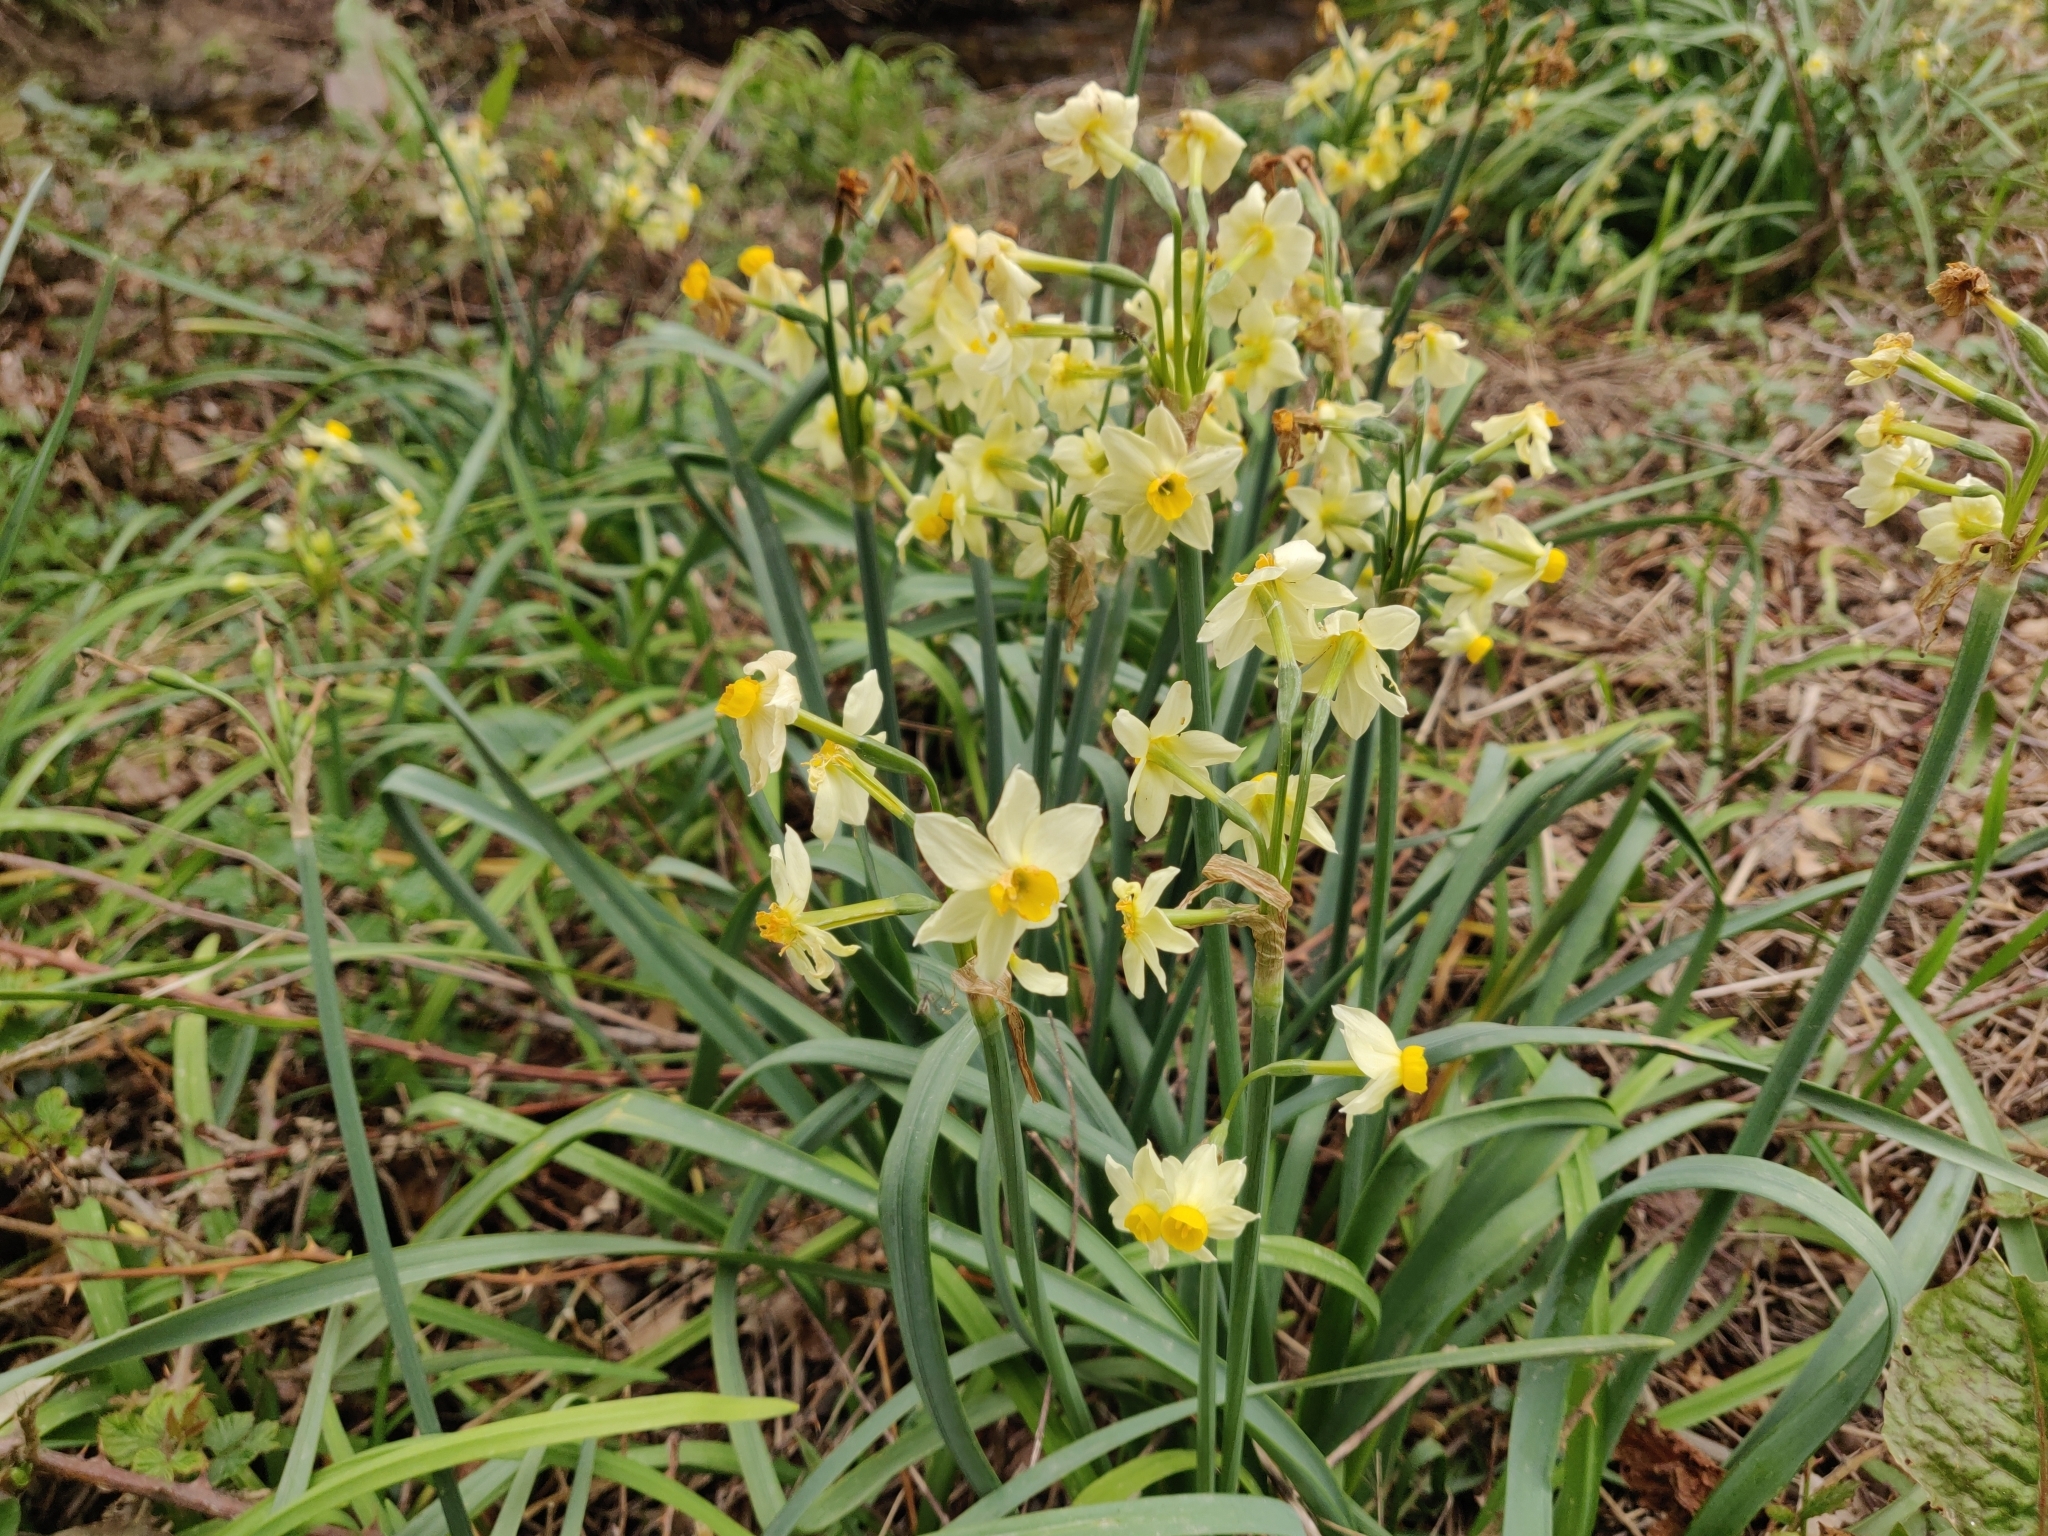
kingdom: Plantae
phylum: Tracheophyta
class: Liliopsida
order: Asparagales
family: Amaryllidaceae
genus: Narcissus
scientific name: Narcissus tazetta
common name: Bunch-flowered daffodil
